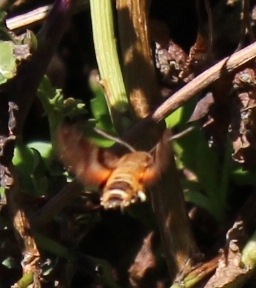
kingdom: Animalia
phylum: Arthropoda
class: Insecta
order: Lepidoptera
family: Sphingidae
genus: Macroglossum
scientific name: Macroglossum trochilus
